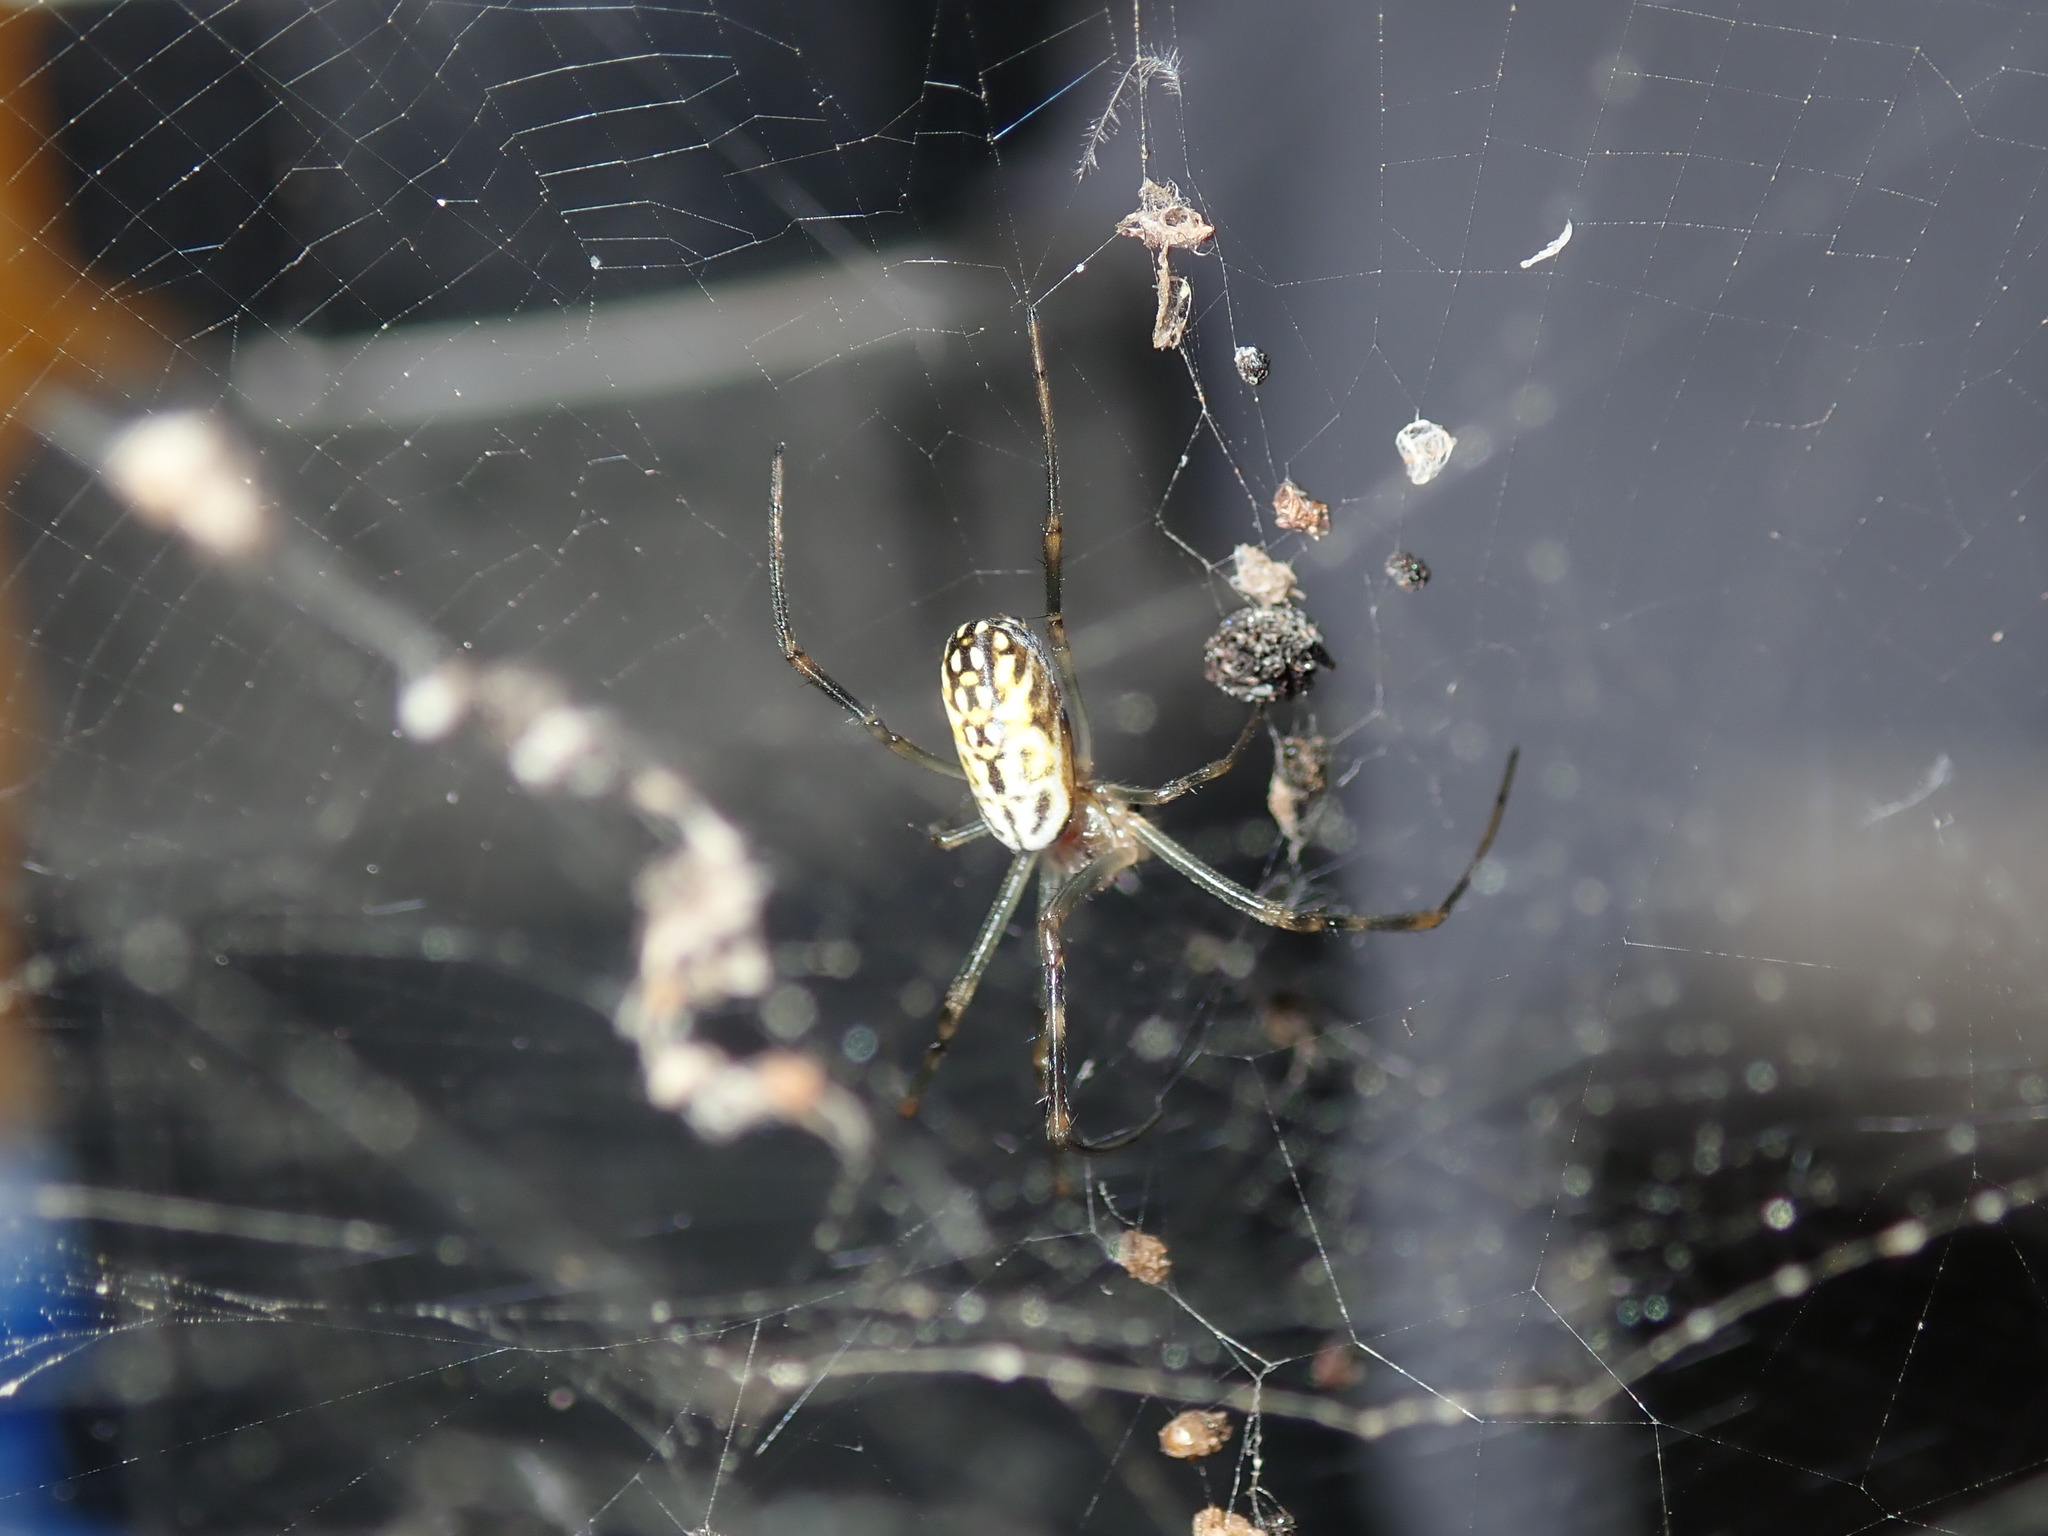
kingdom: Animalia
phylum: Arthropoda
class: Arachnida
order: Araneae
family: Araneidae
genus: Trichonephila
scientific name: Trichonephila plumipes
